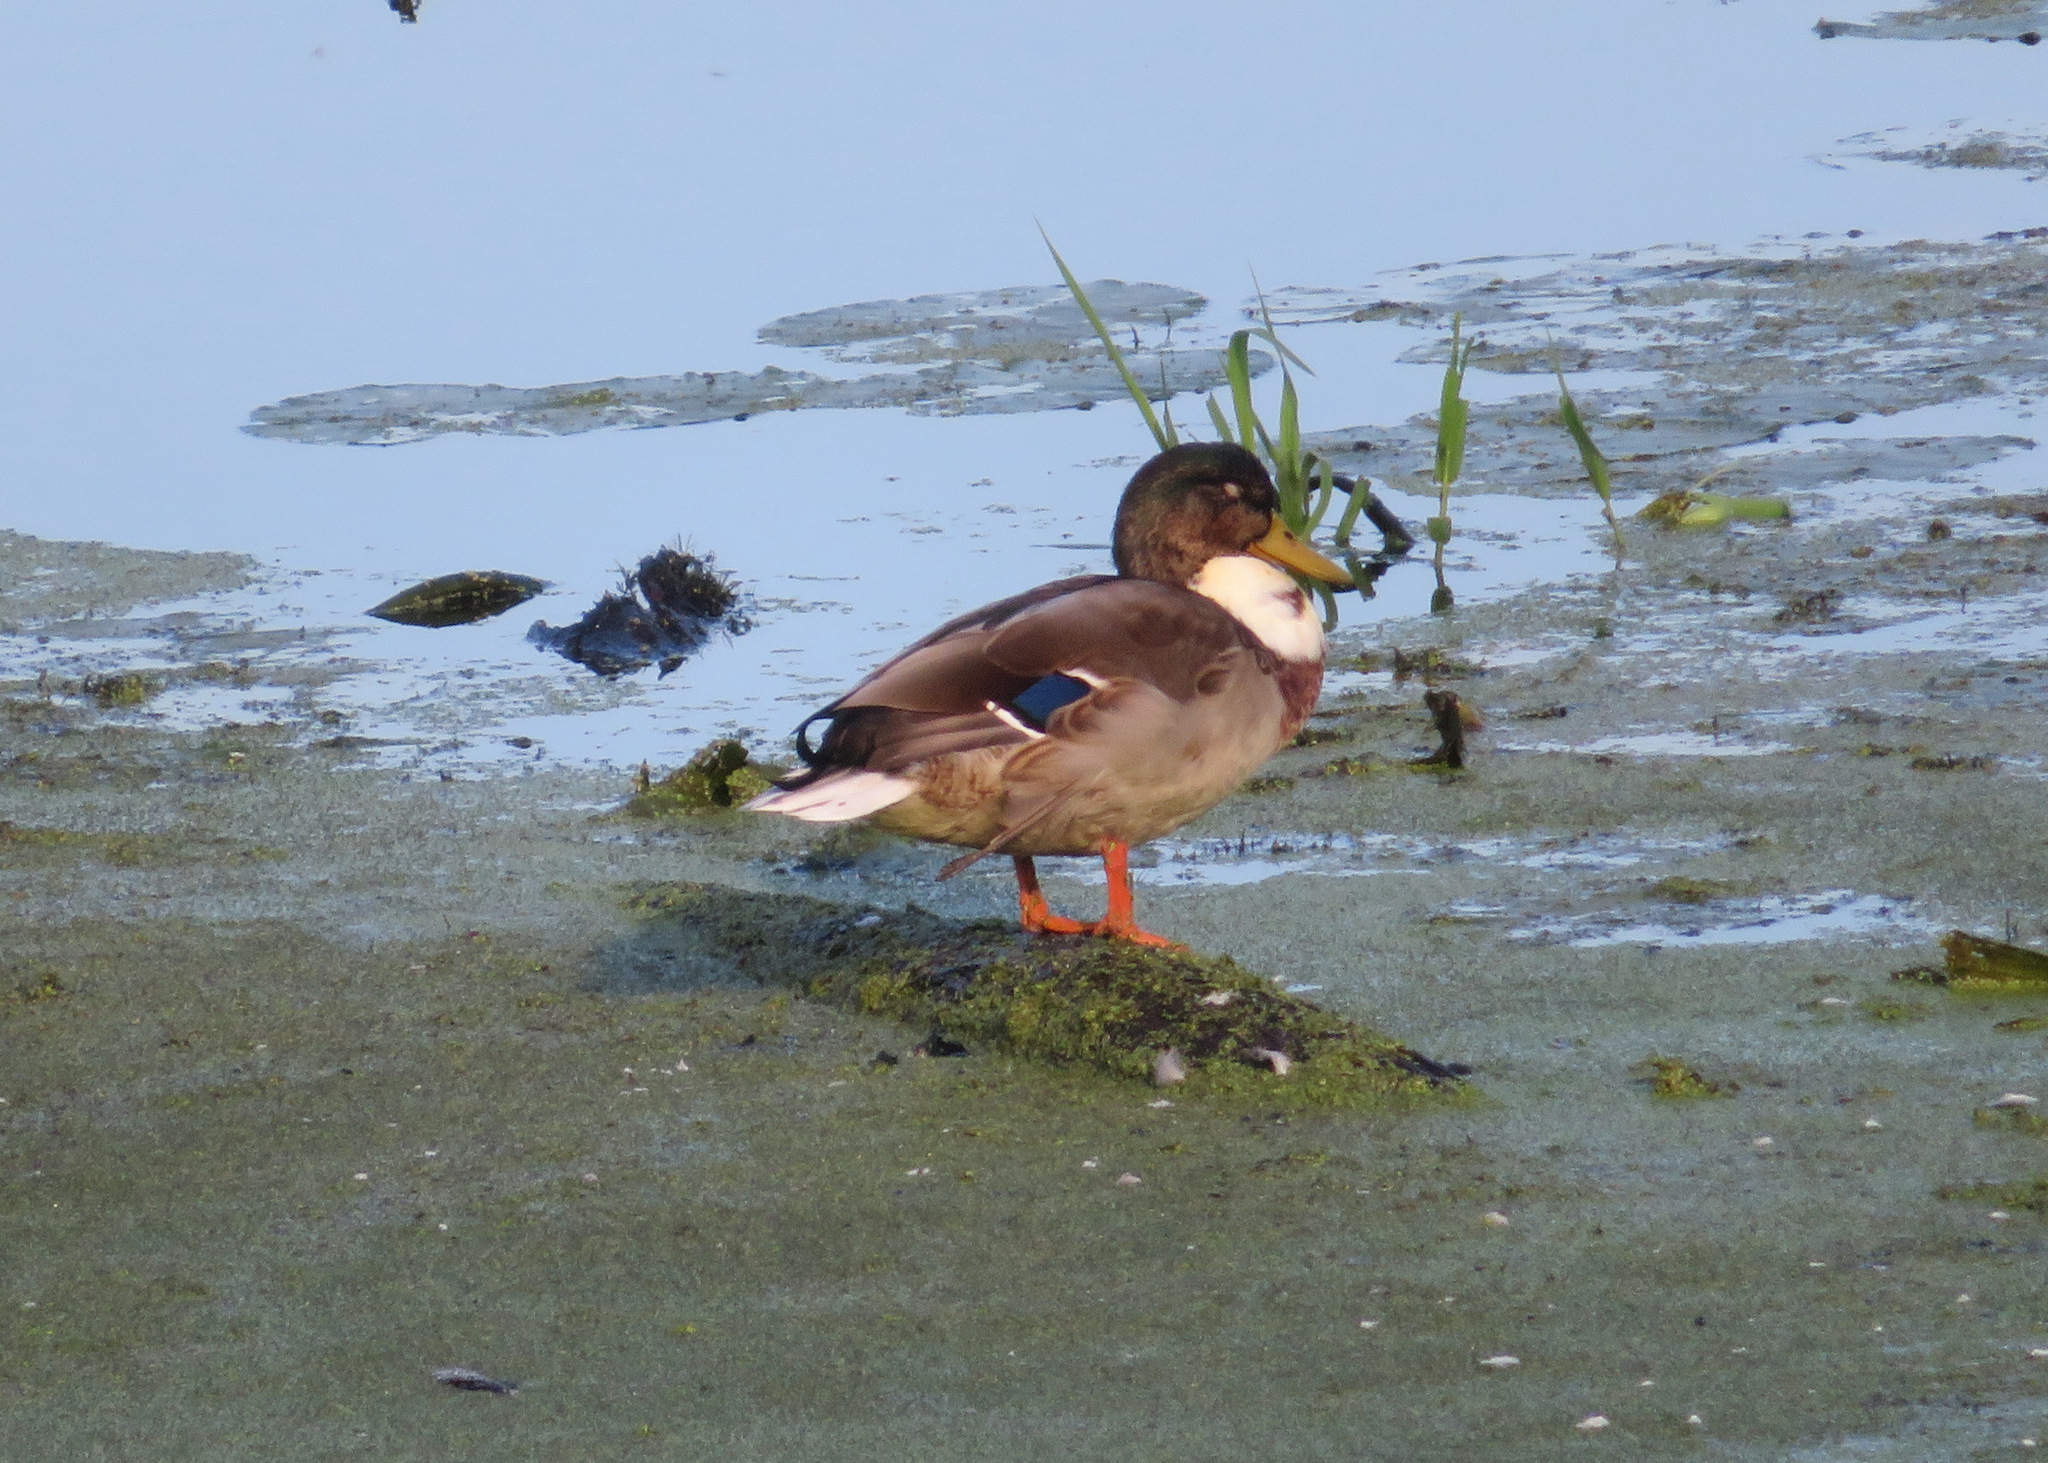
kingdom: Animalia
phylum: Chordata
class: Aves
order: Anseriformes
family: Anatidae
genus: Anas
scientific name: Anas platyrhynchos
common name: Mallard
